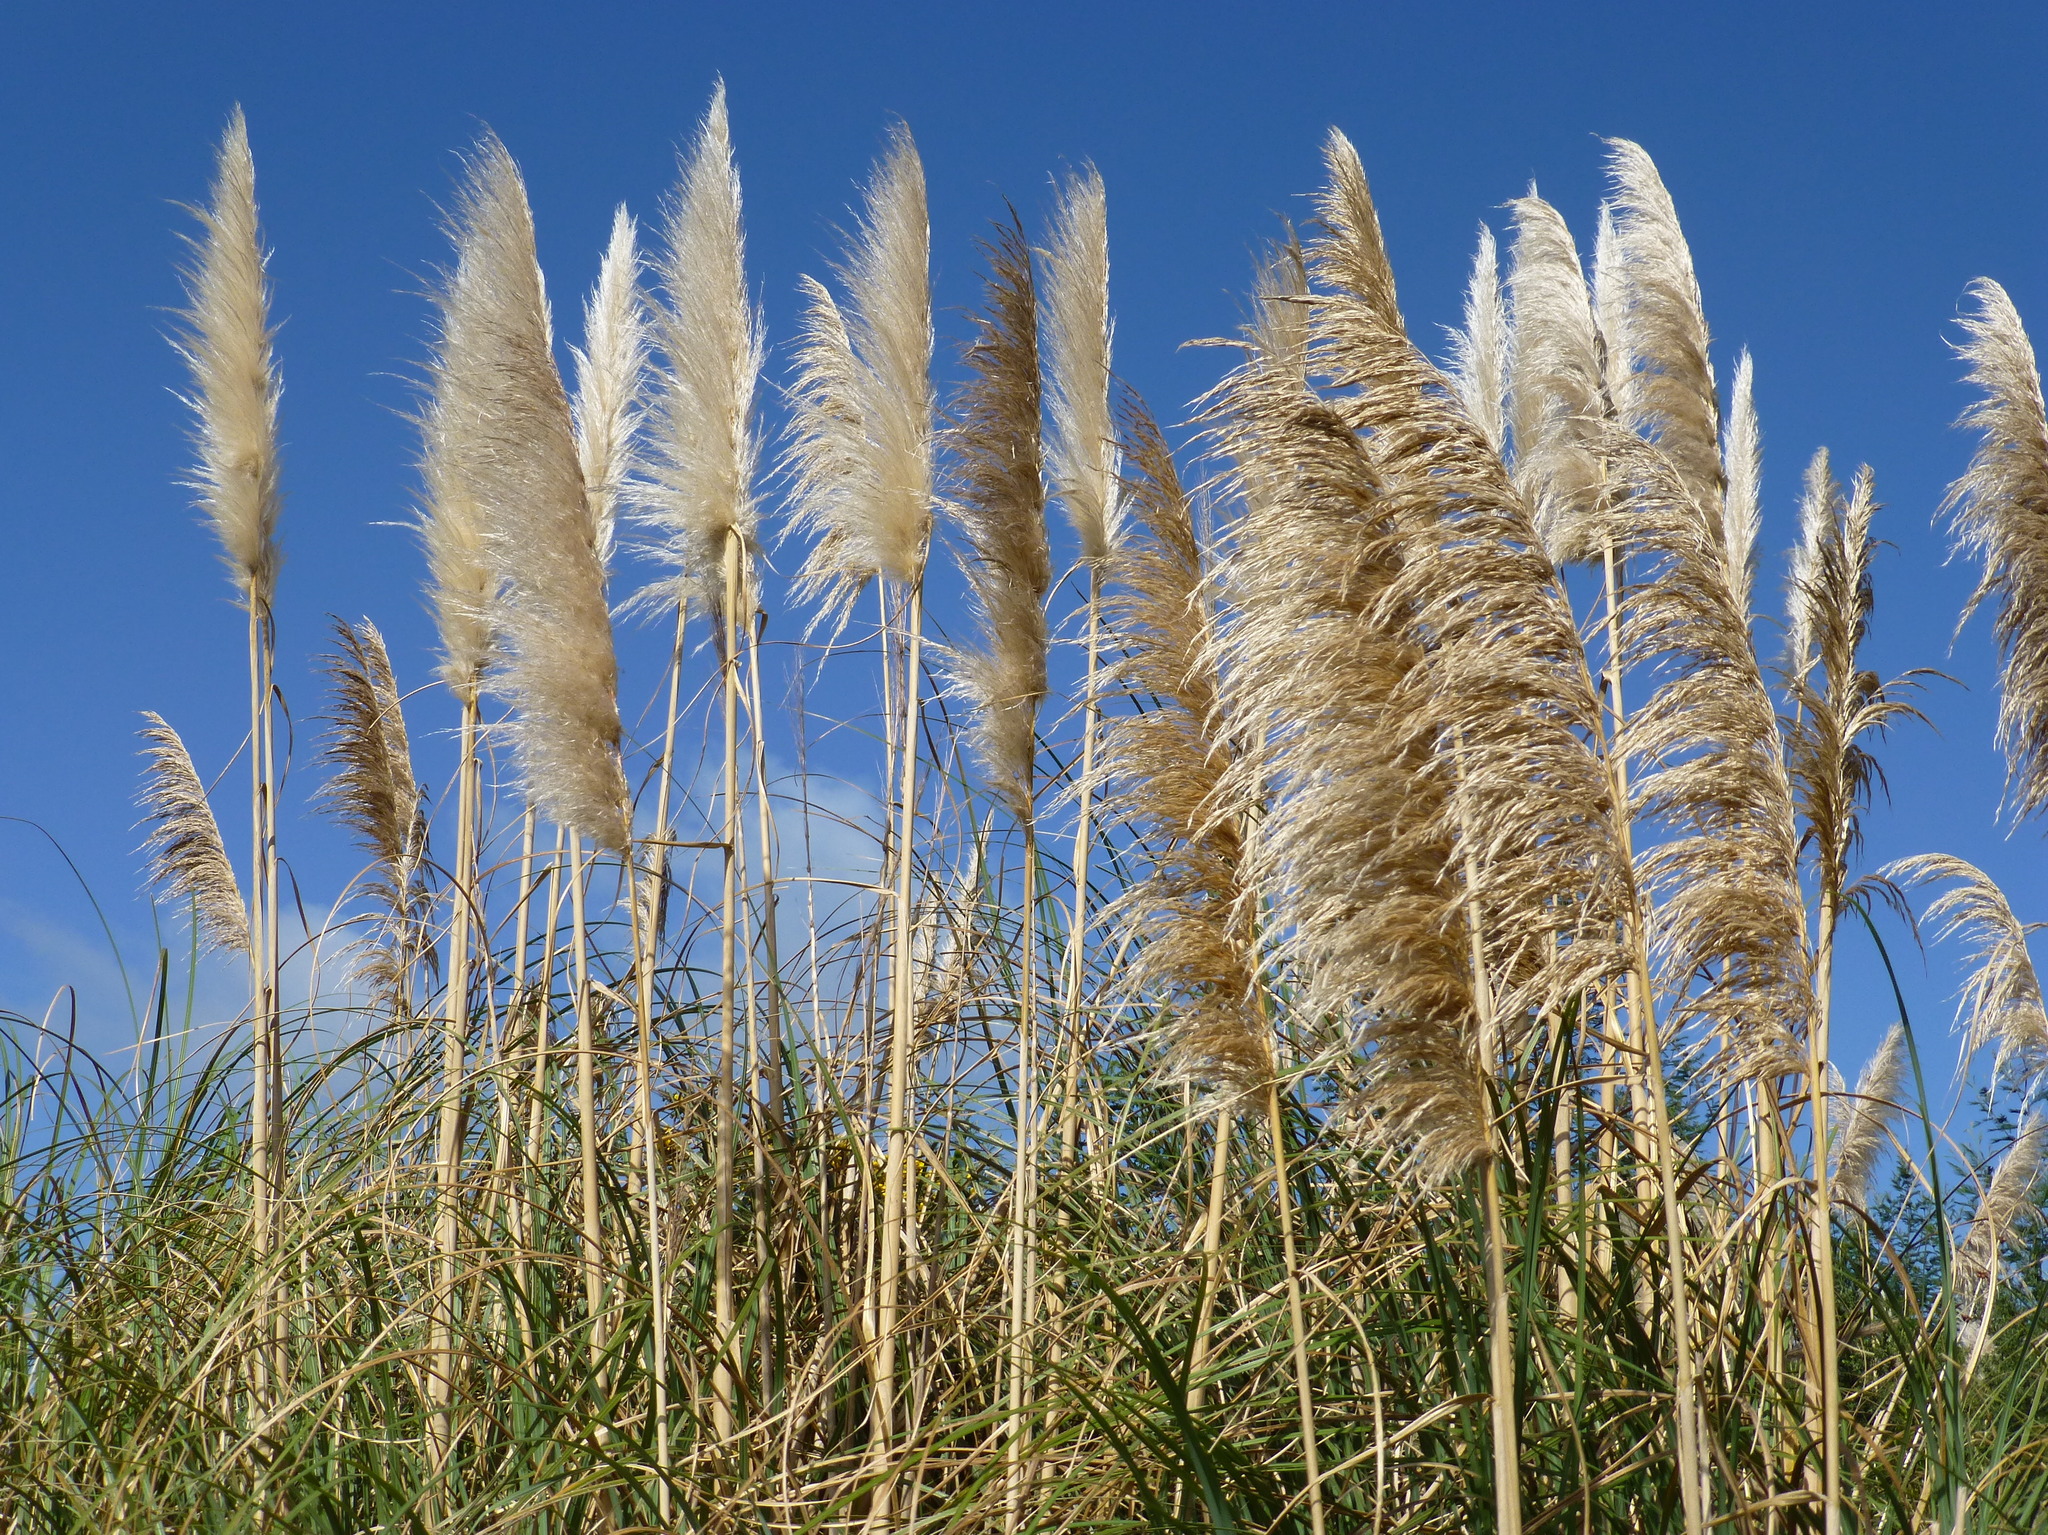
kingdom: Plantae
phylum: Tracheophyta
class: Liliopsida
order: Poales
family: Poaceae
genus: Cortaderia
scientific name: Cortaderia selloana
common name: Uruguayan pampas grass
